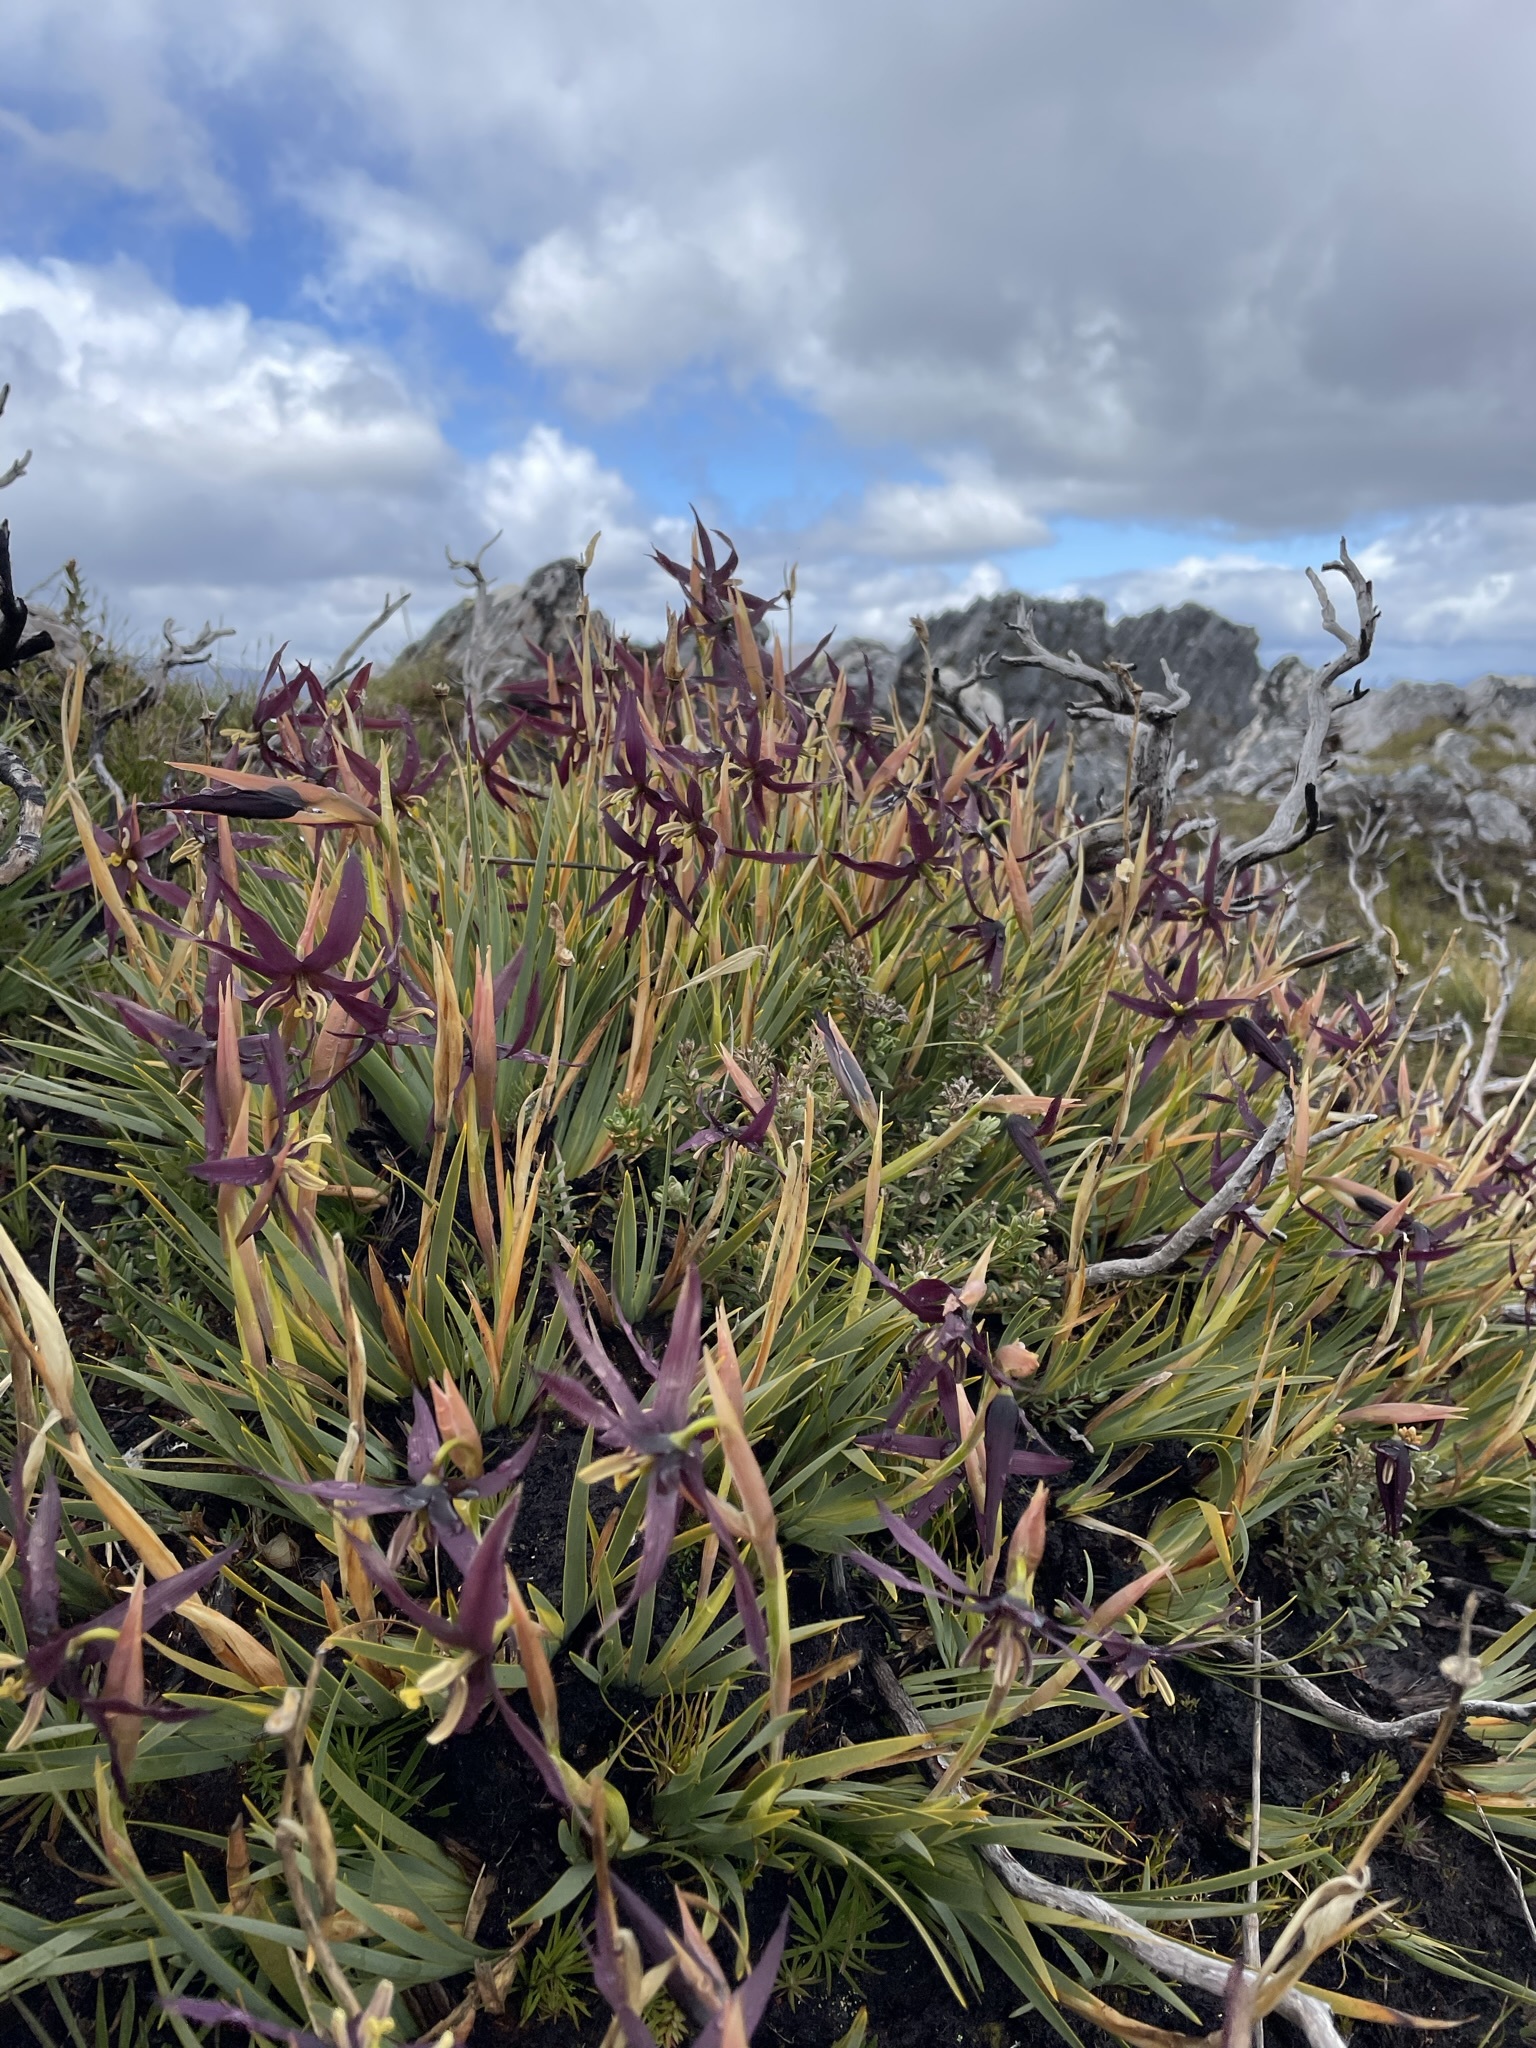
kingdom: Plantae
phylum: Tracheophyta
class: Liliopsida
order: Asparagales
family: Iridaceae
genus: Isophysis
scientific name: Isophysis tasmanica
